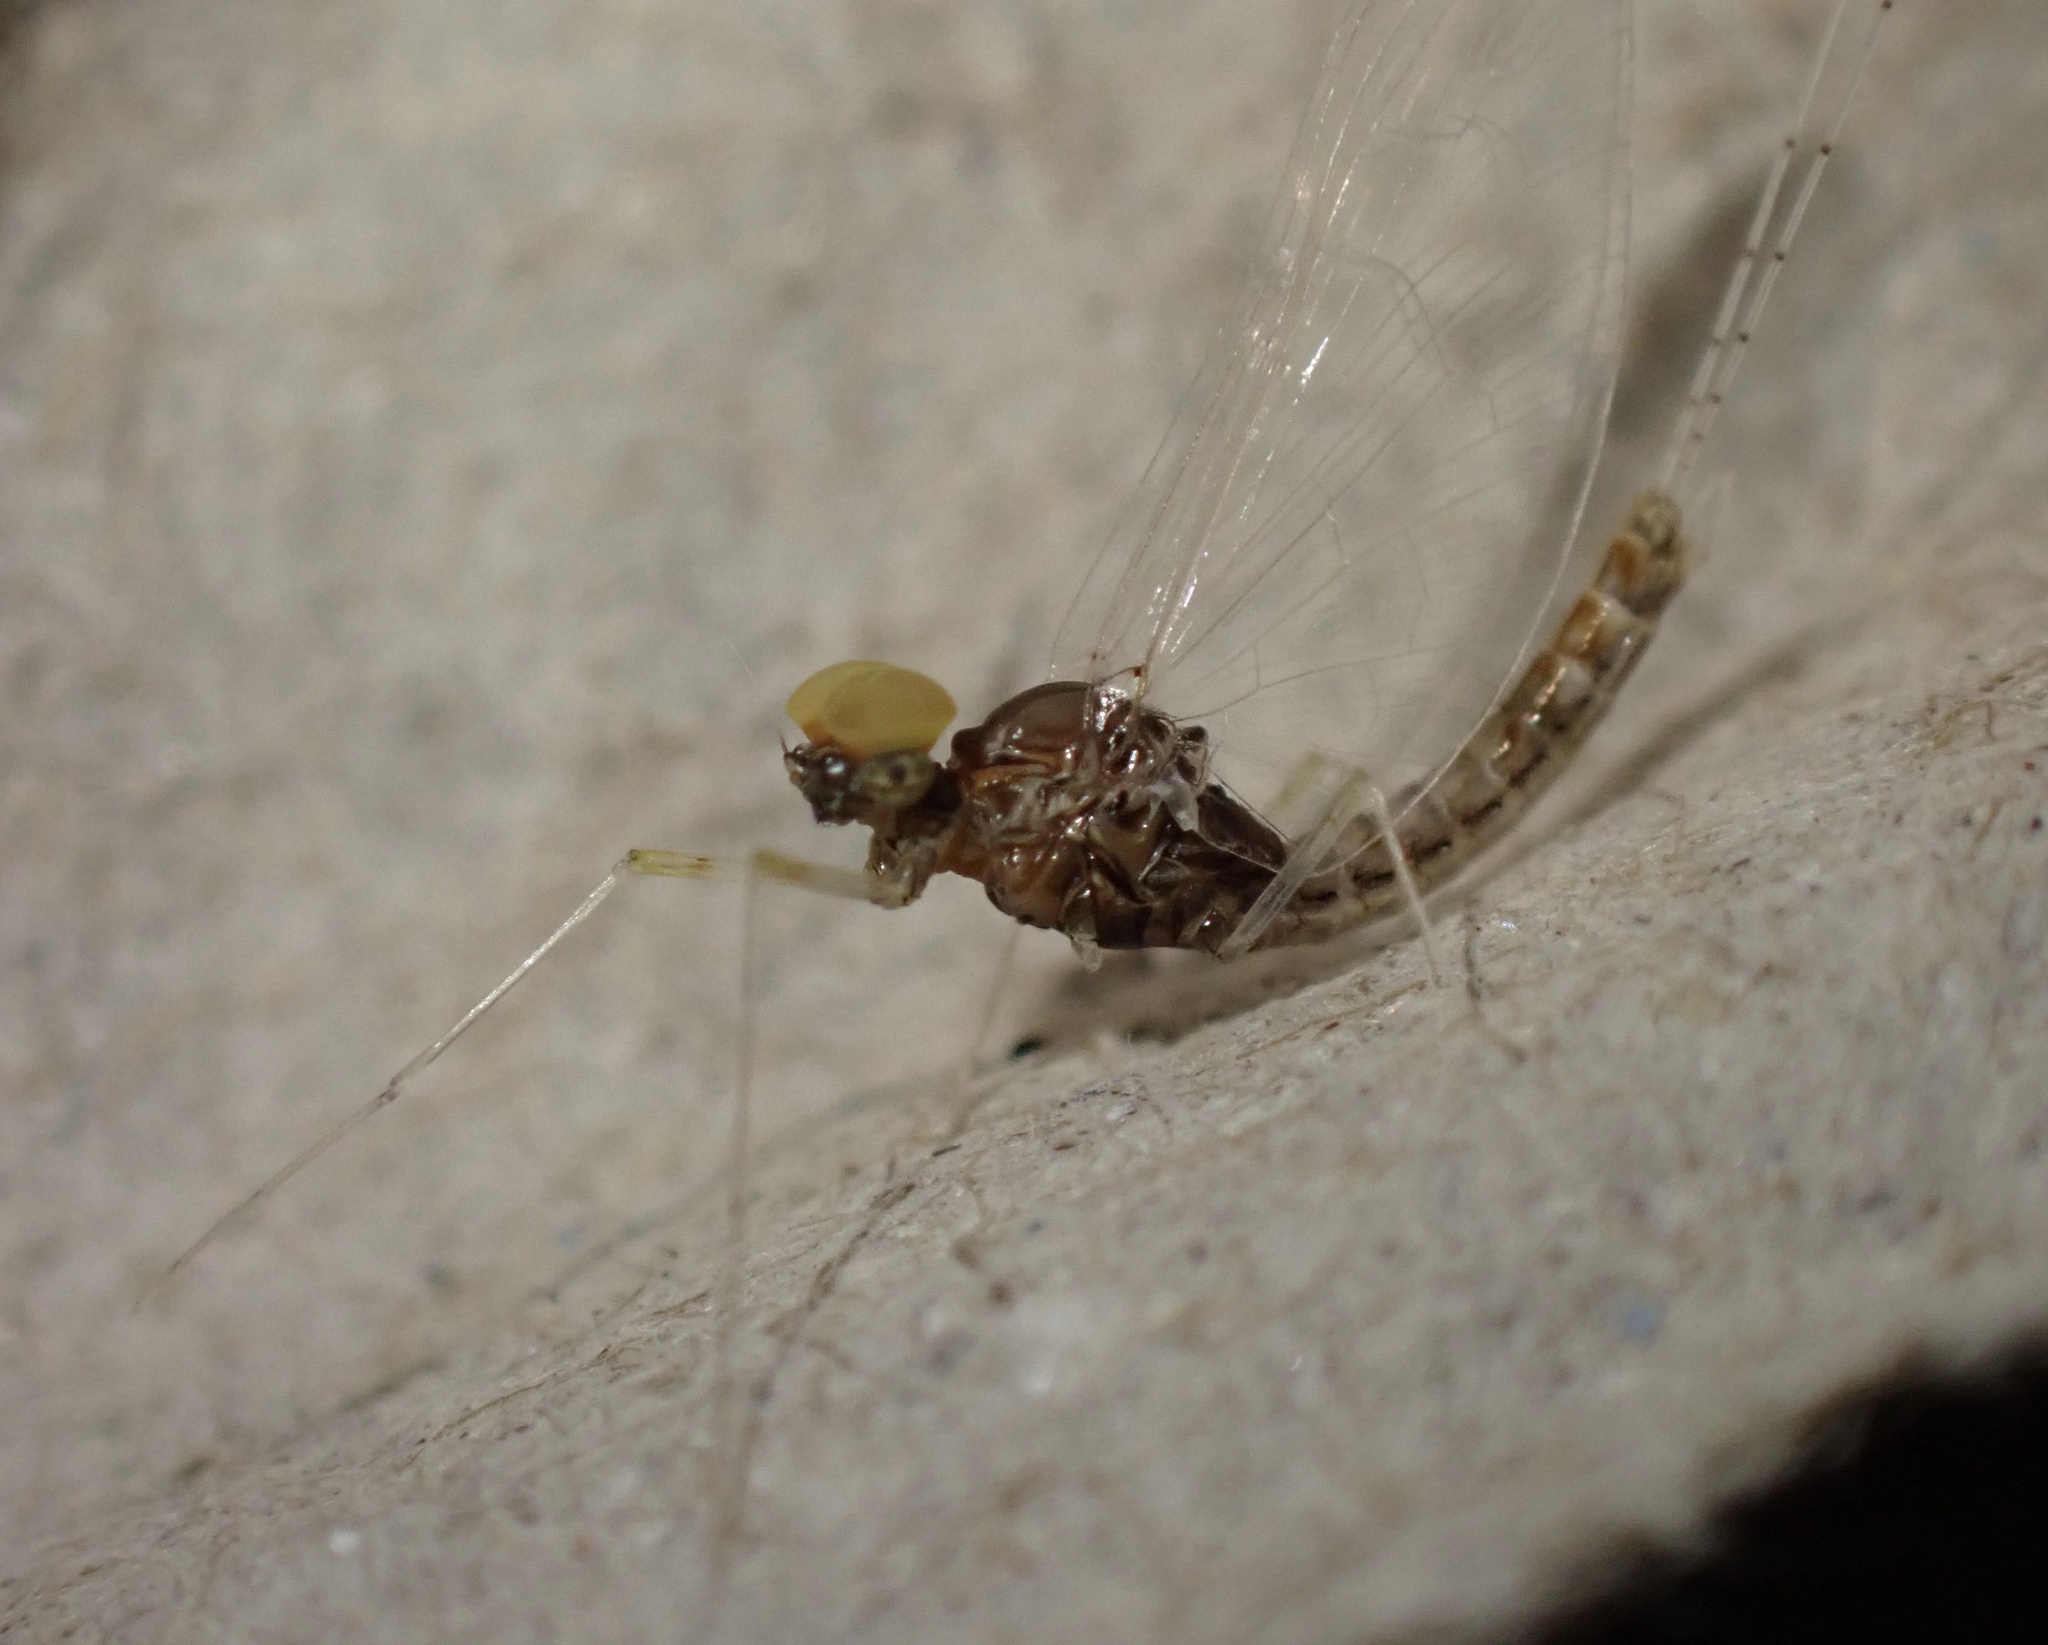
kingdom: Animalia
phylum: Arthropoda
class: Insecta
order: Ephemeroptera
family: Baetidae
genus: Cloeon
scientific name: Cloeon dipterum
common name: Pond olive
